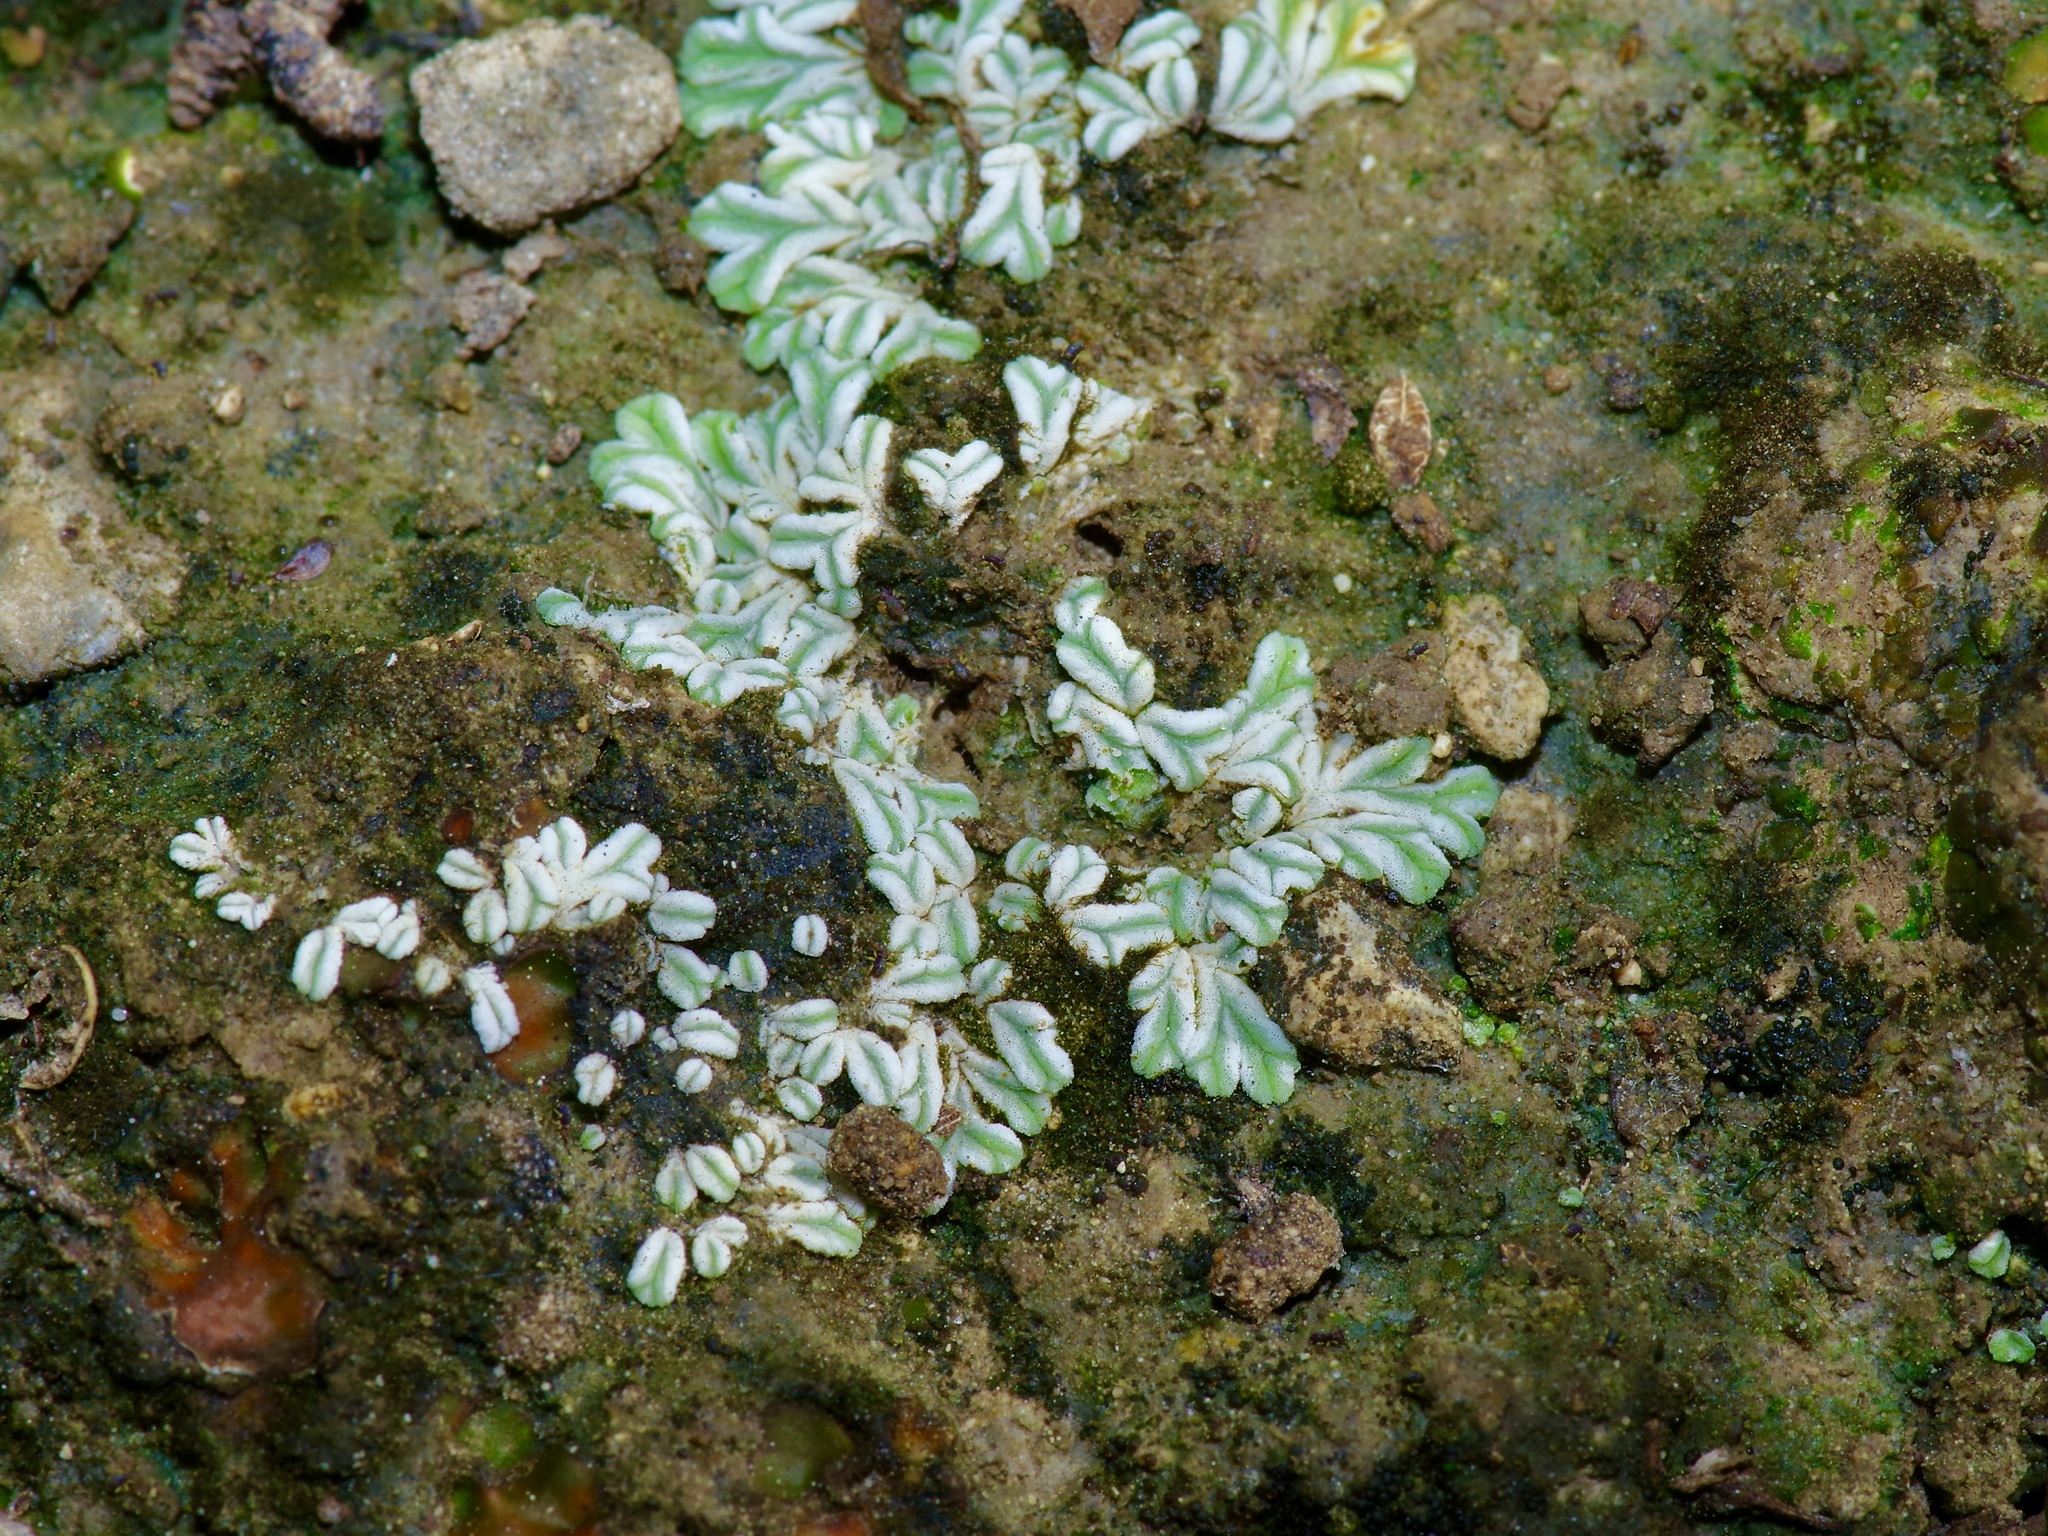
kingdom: Plantae
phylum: Marchantiophyta
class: Marchantiopsida
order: Marchantiales
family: Ricciaceae
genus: Riccia
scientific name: Riccia albida
